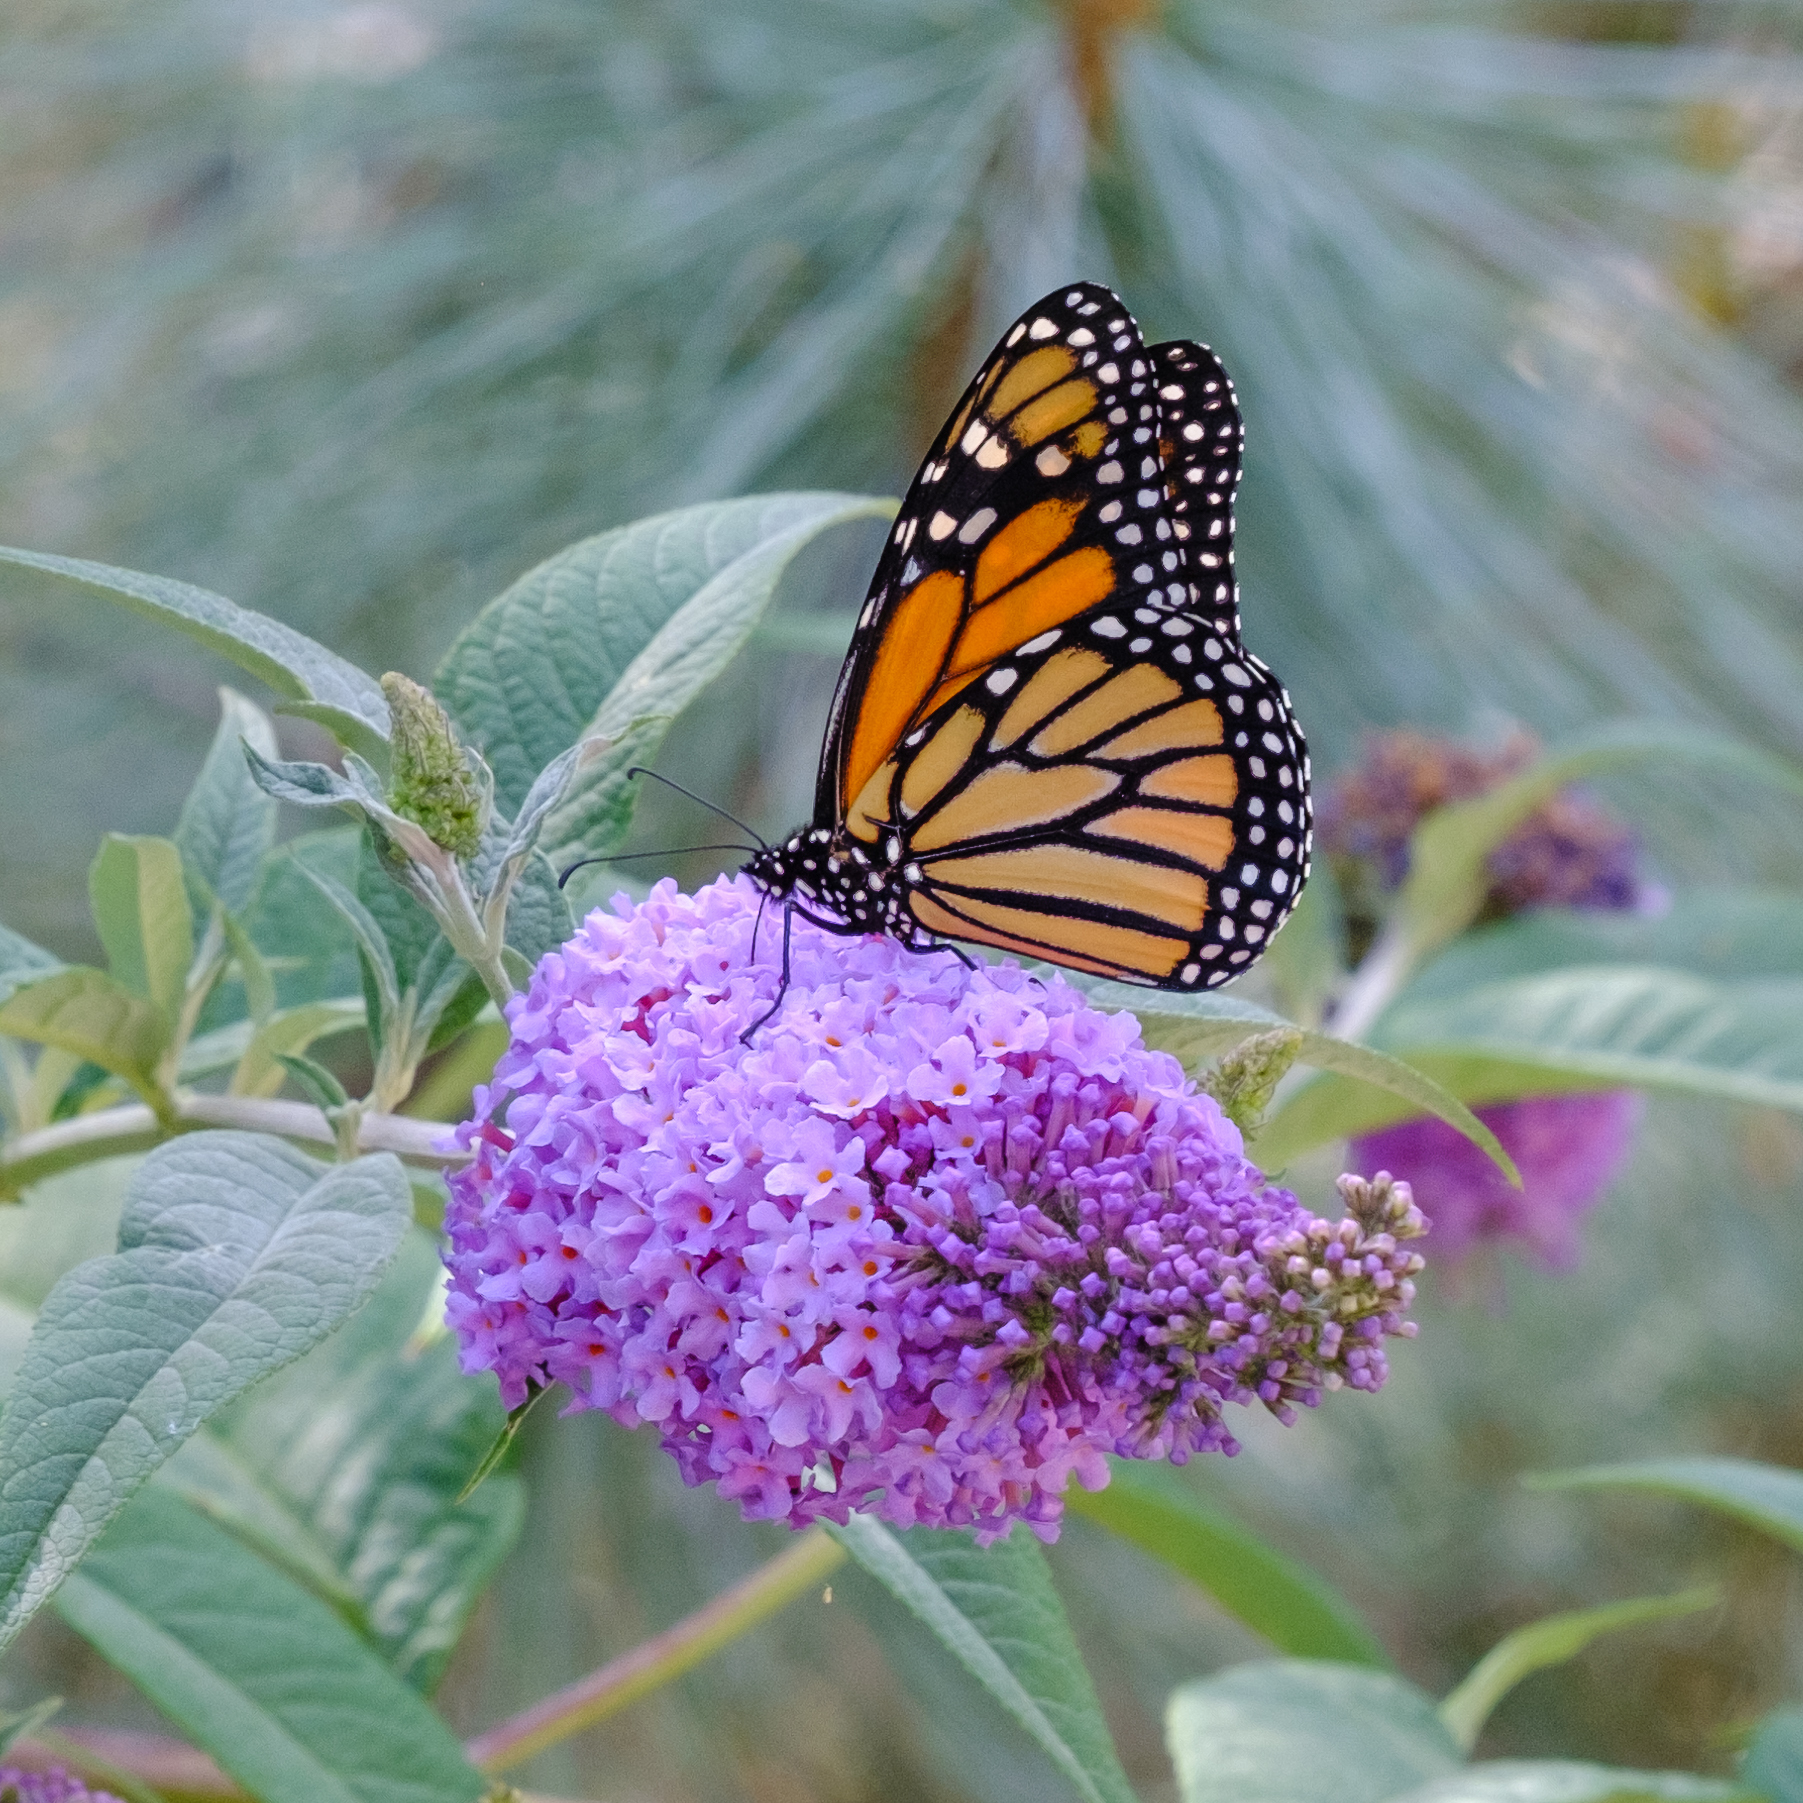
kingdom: Animalia
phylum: Arthropoda
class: Insecta
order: Lepidoptera
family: Nymphalidae
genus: Danaus
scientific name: Danaus plexippus
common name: Monarch
